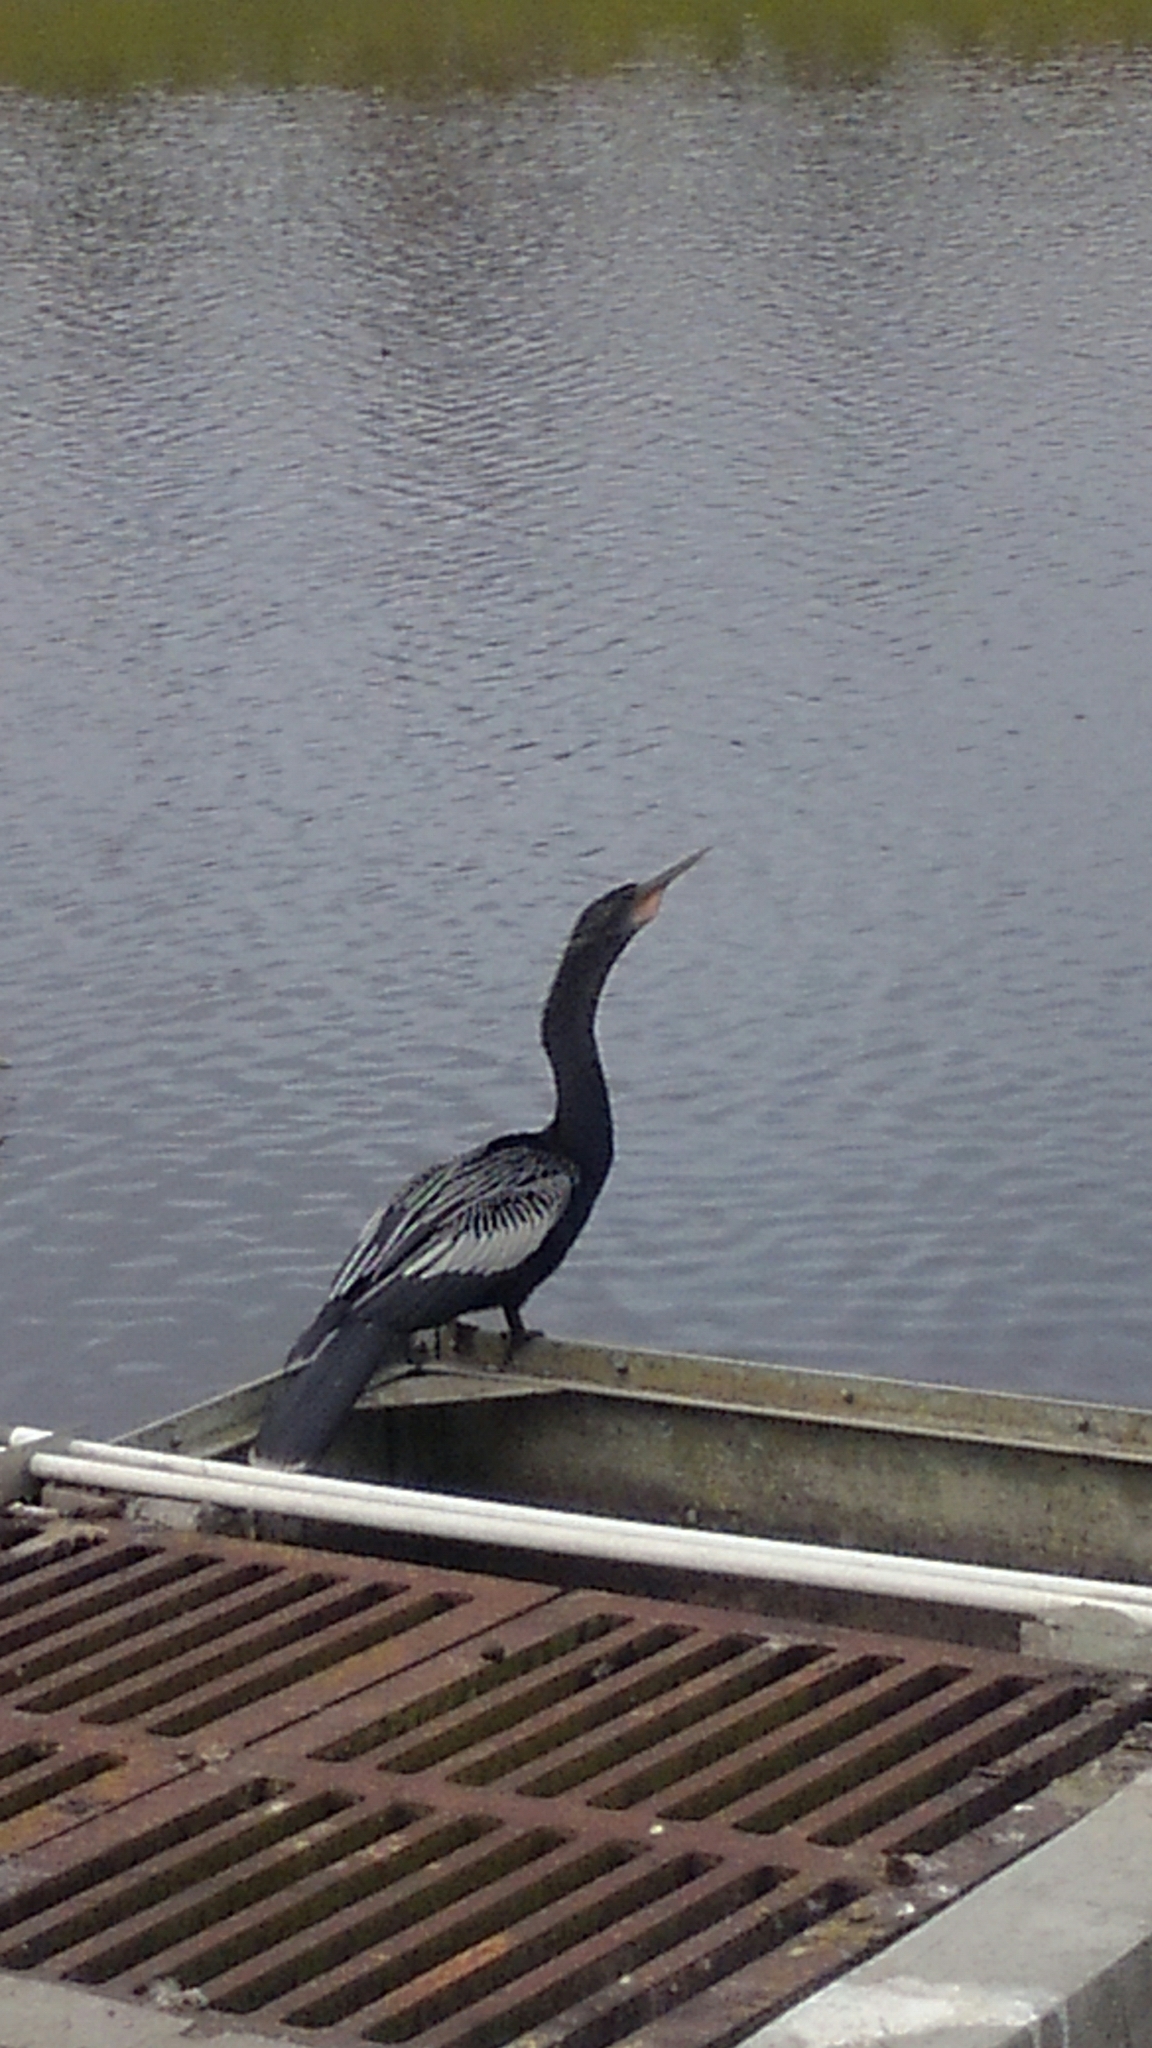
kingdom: Animalia
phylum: Chordata
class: Aves
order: Suliformes
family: Anhingidae
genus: Anhinga
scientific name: Anhinga anhinga
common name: Anhinga
